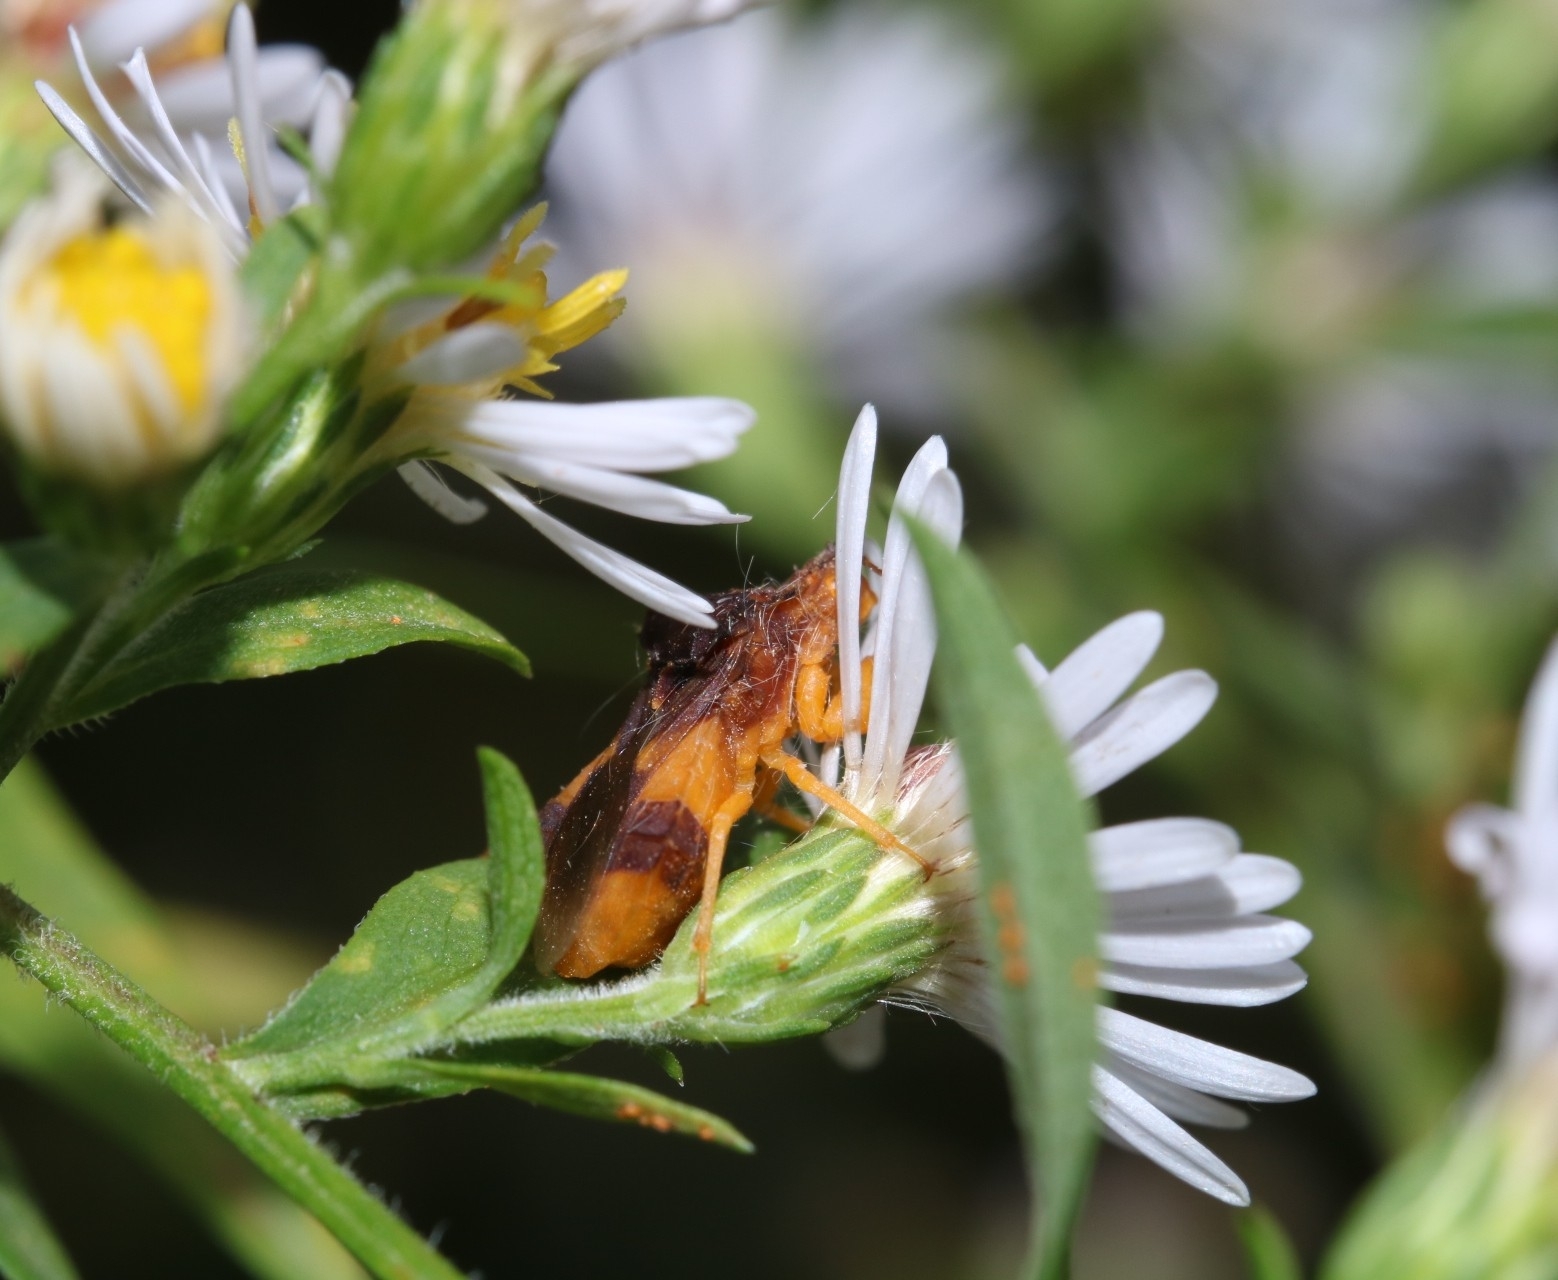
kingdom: Animalia
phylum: Arthropoda
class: Insecta
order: Hemiptera
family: Reduviidae
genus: Phymata
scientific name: Phymata pennsylvanica
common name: Pennsylvania ambush bug
